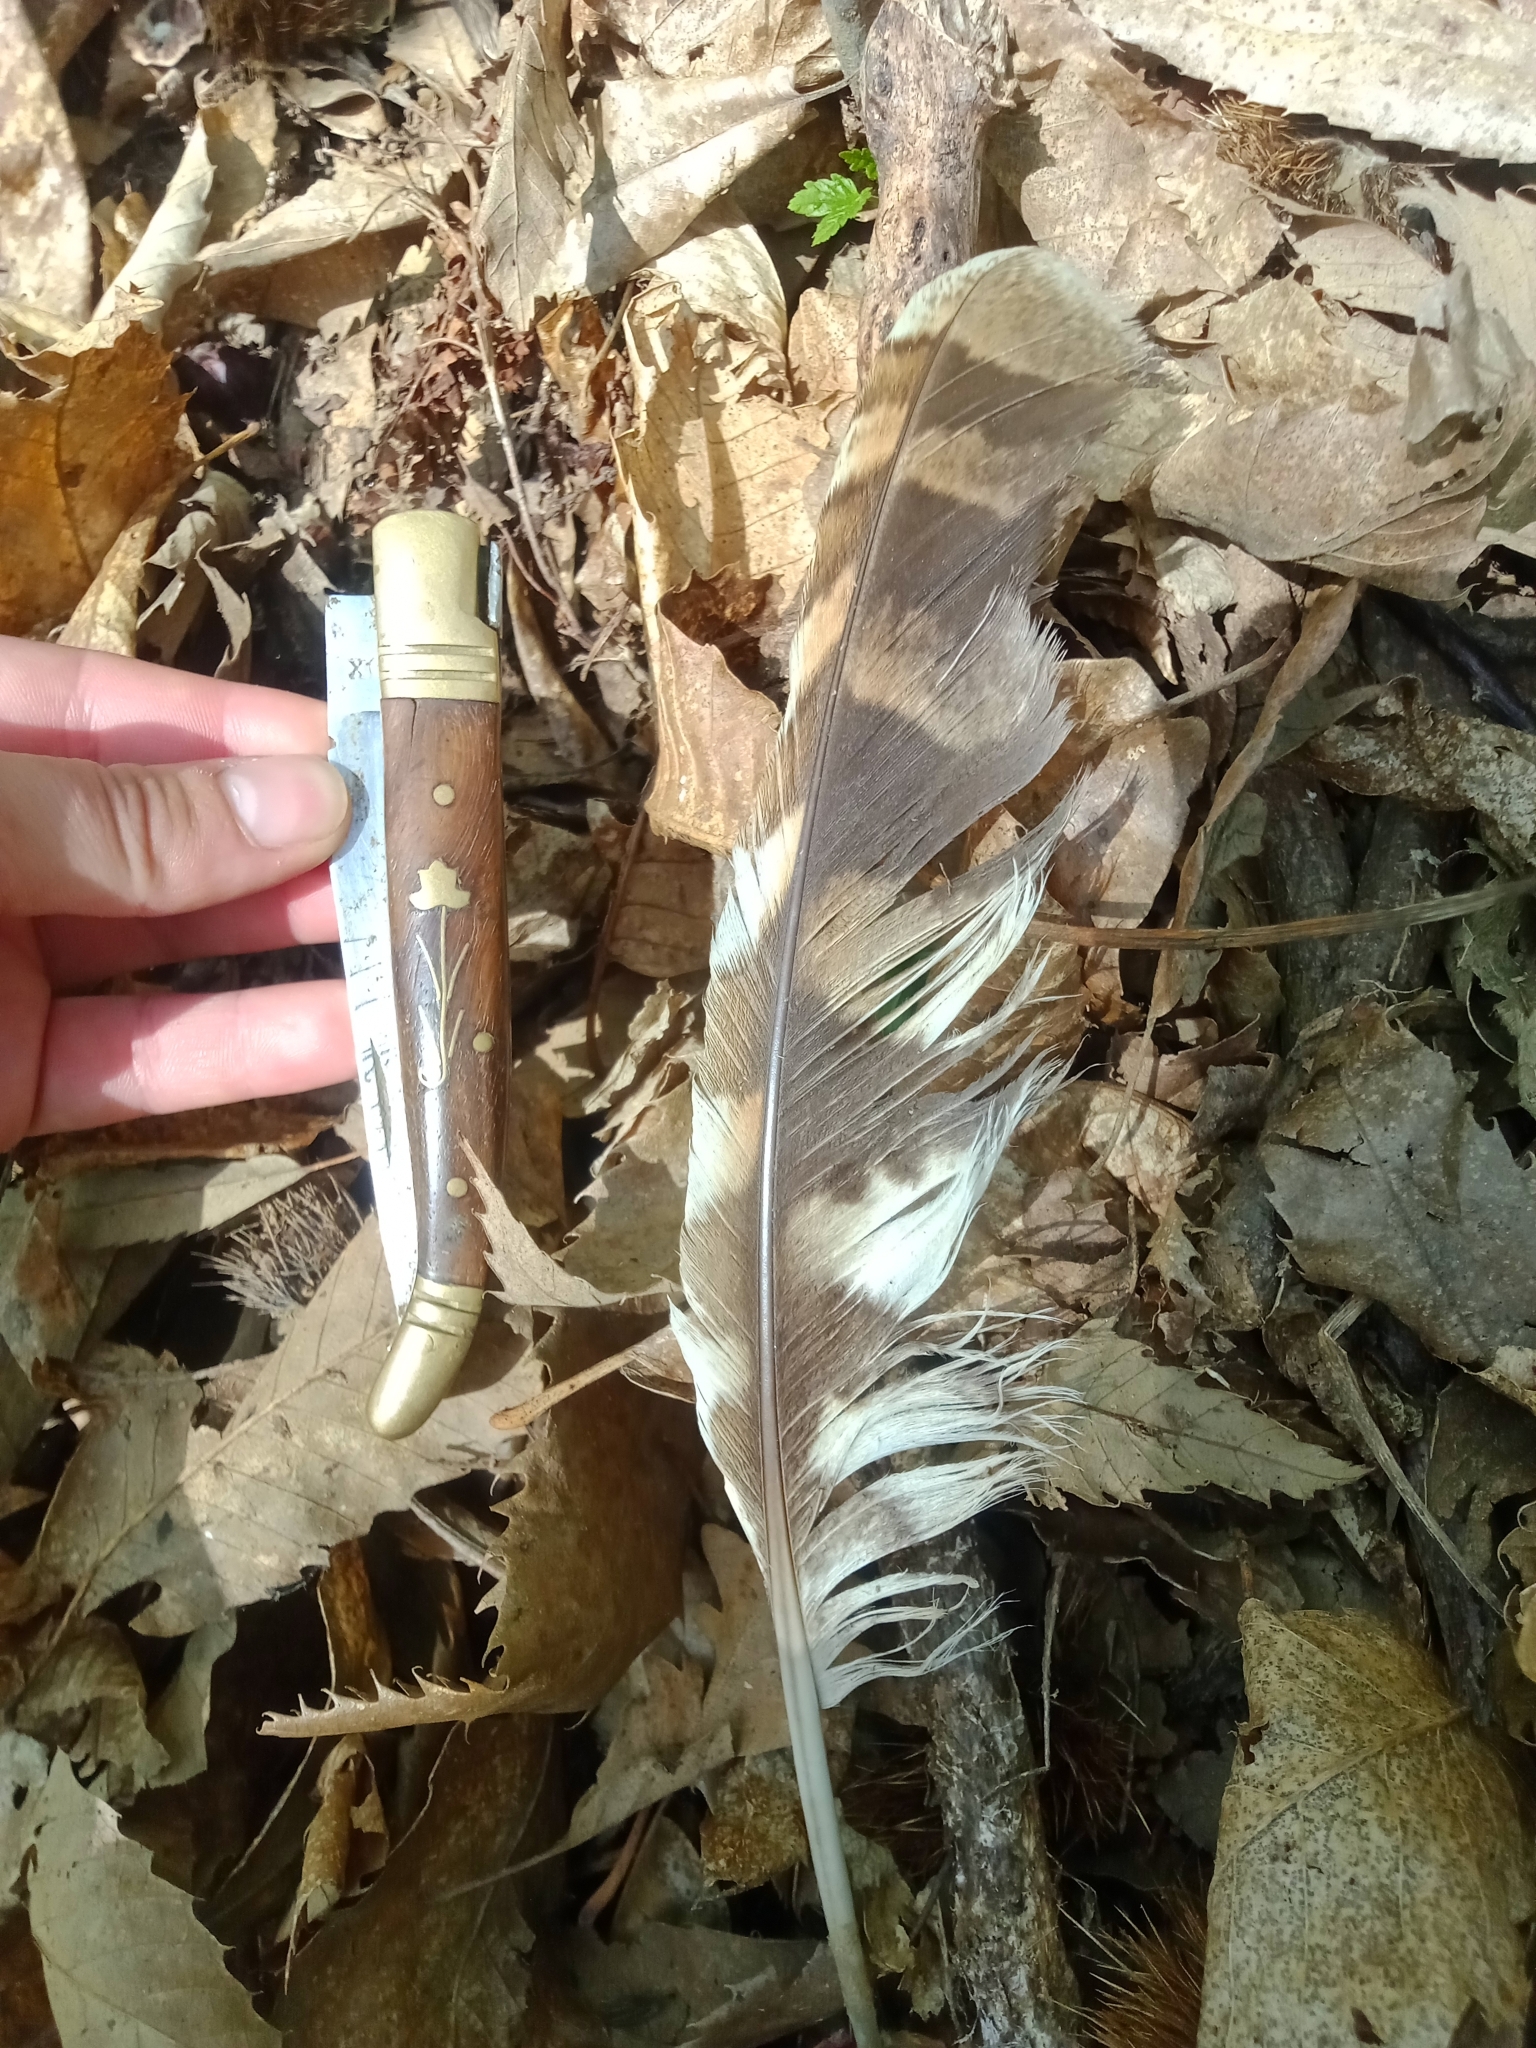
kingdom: Animalia
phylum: Chordata
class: Aves
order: Strigiformes
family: Strigidae
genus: Strix
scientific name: Strix aluco
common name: Tawny owl
